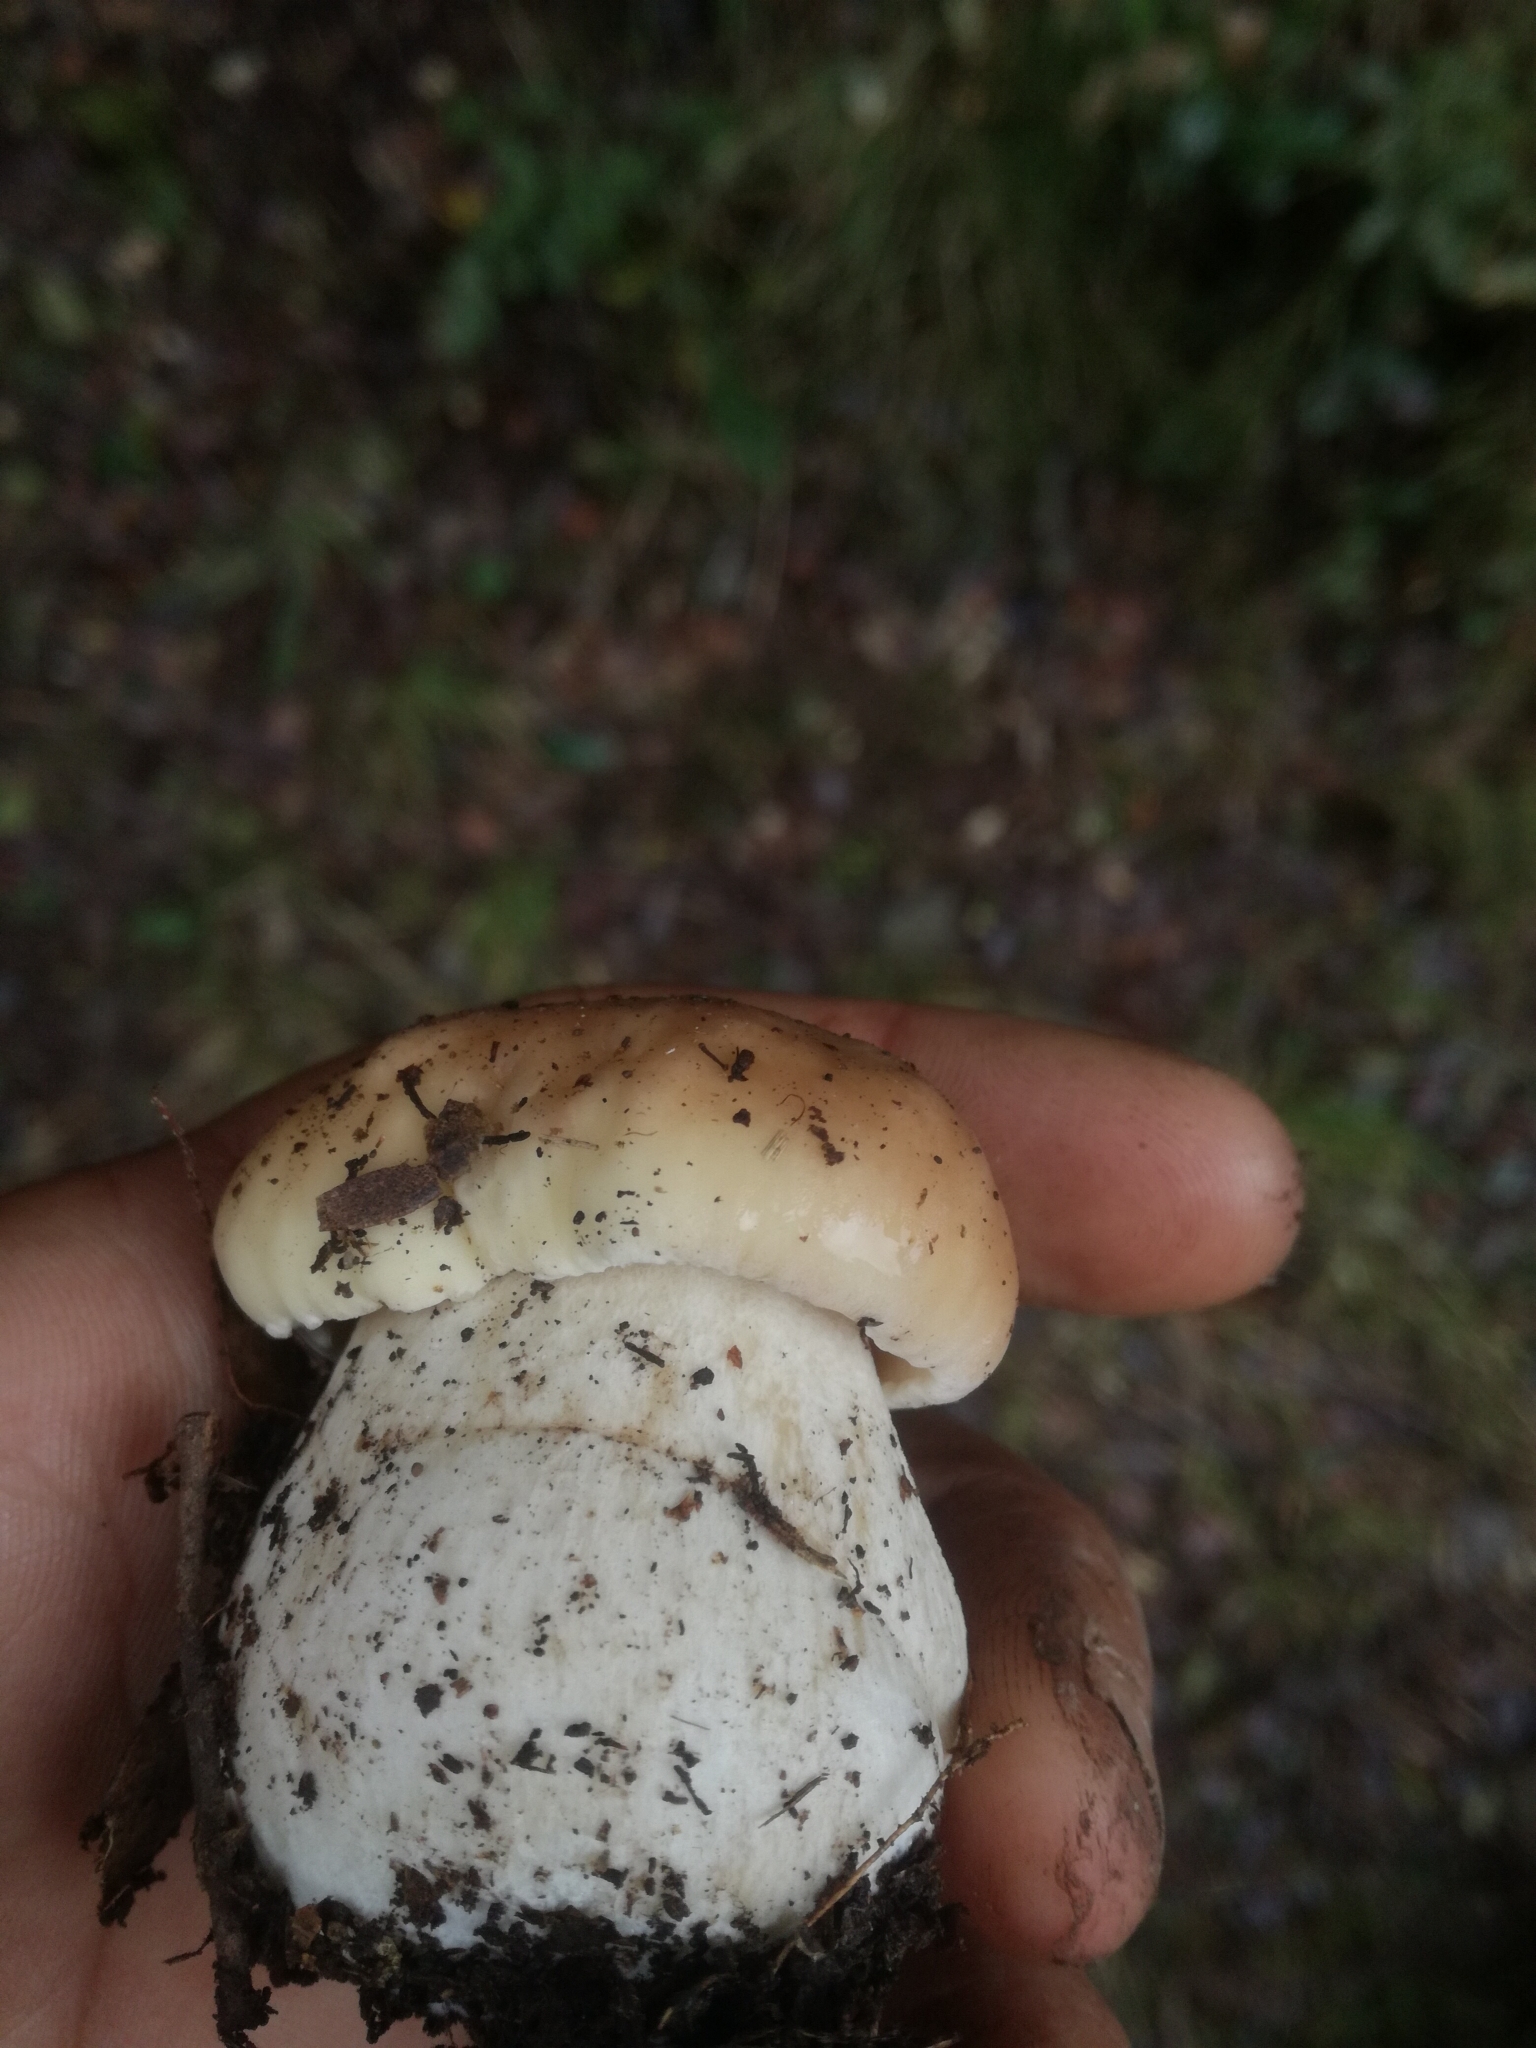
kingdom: Fungi
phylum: Basidiomycota
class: Agaricomycetes
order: Boletales
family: Boletaceae
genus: Boletus
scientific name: Boletus edulis
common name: Cep
